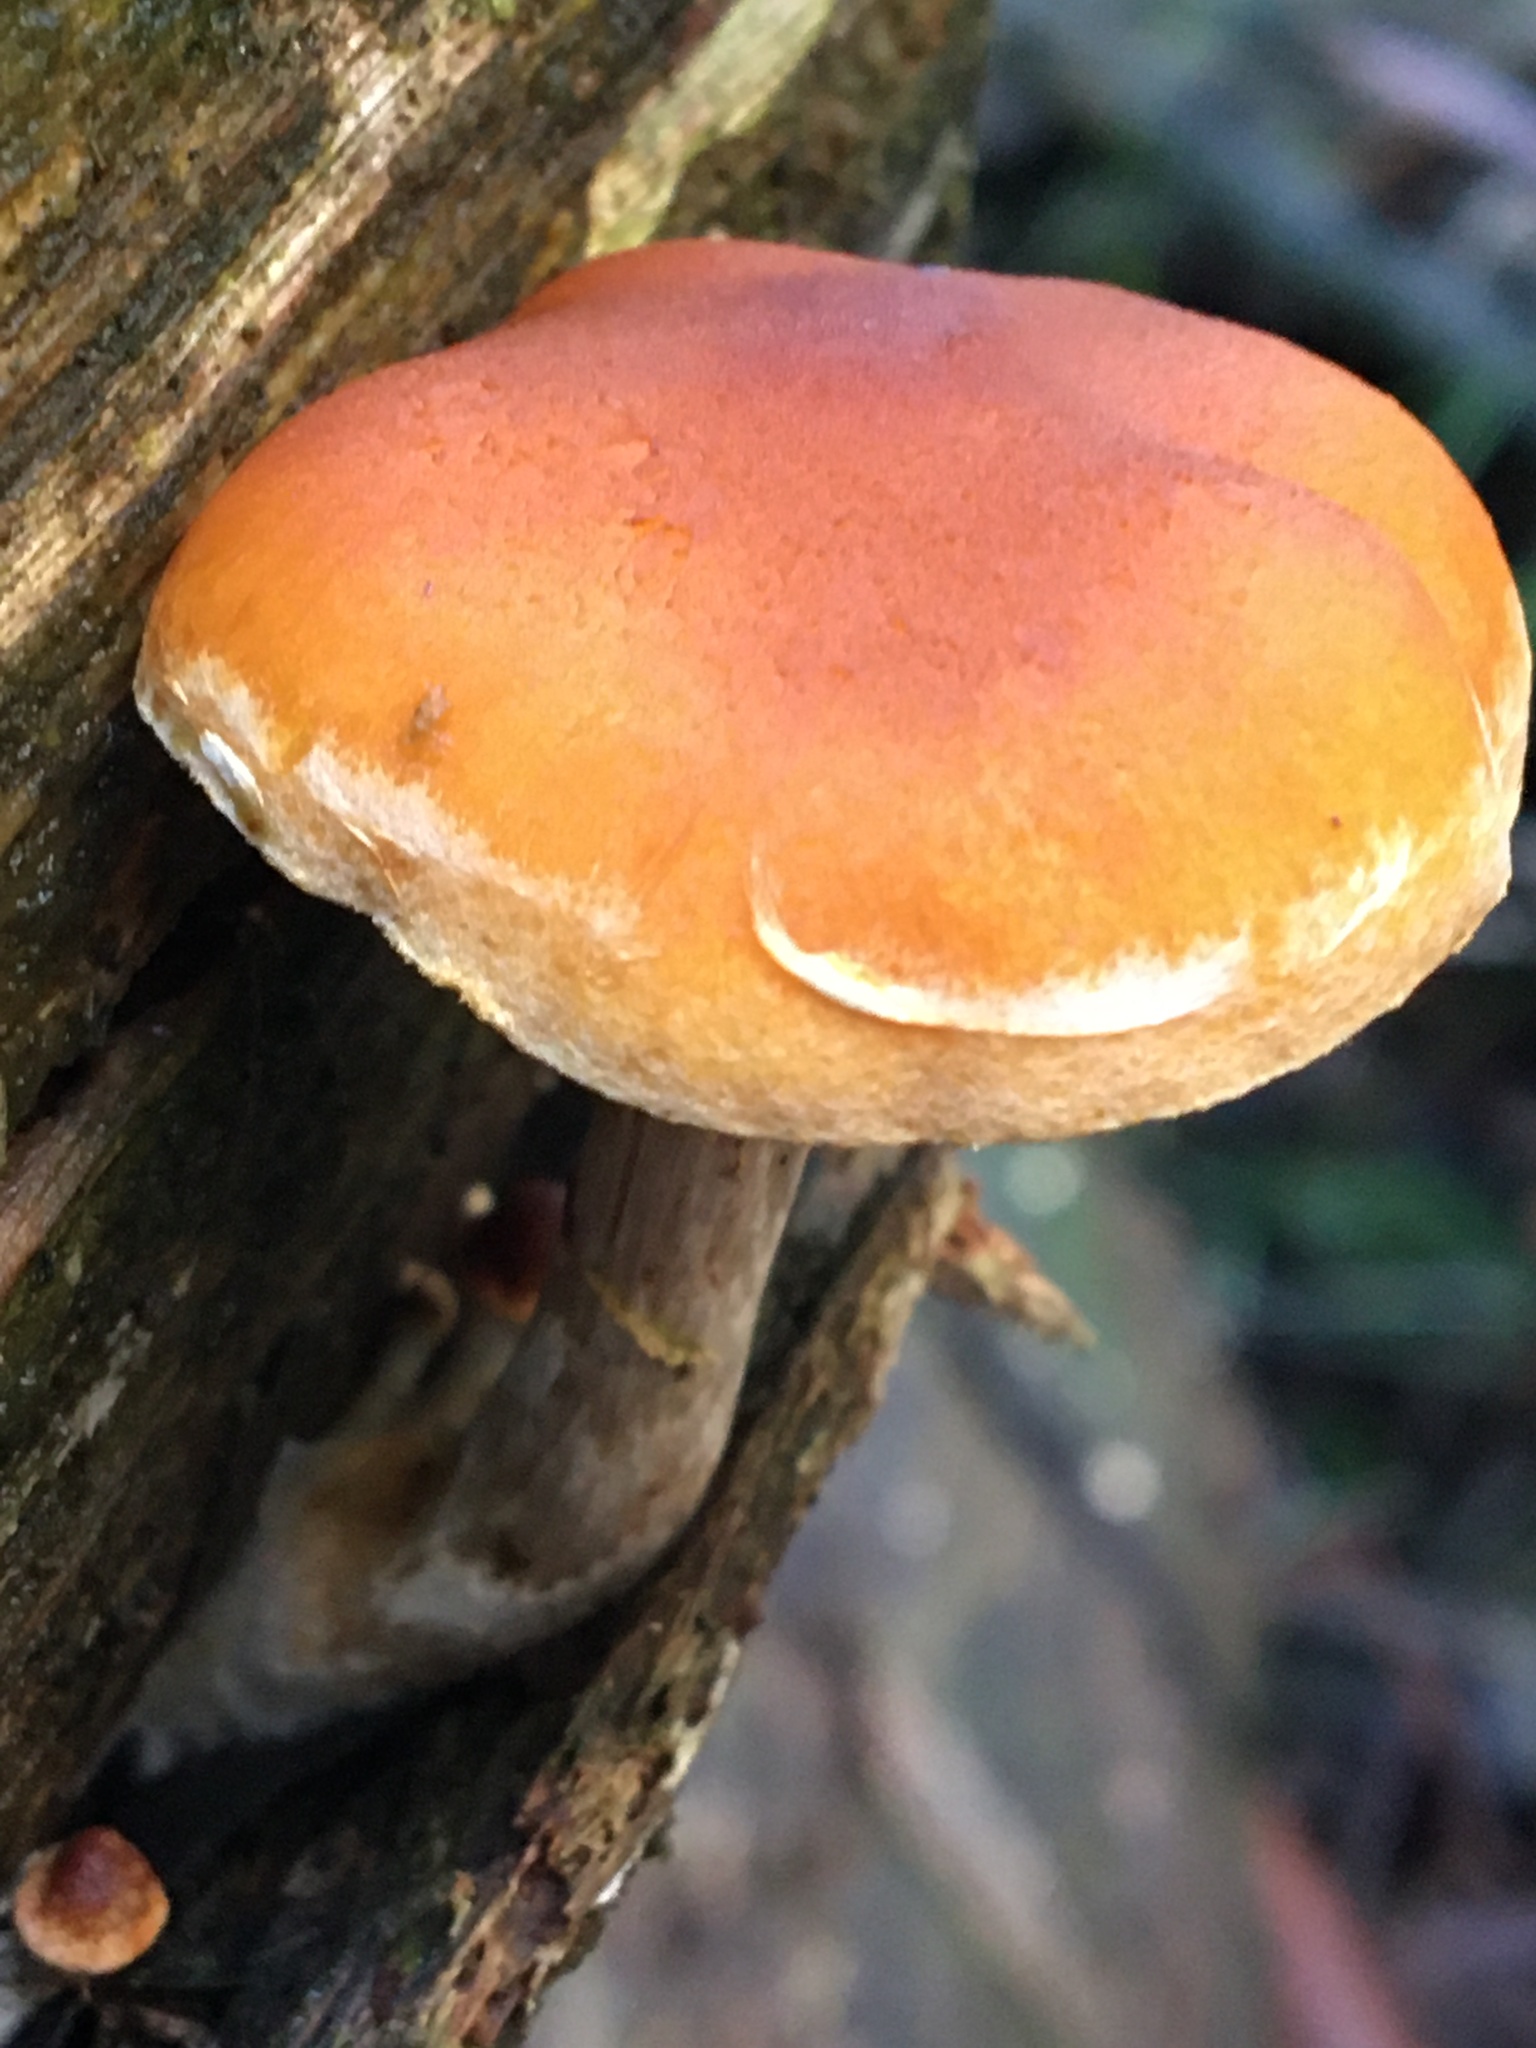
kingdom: Fungi
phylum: Basidiomycota
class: Agaricomycetes
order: Agaricales
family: Hymenogastraceae
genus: Gymnopilus
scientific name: Gymnopilus allantopus
